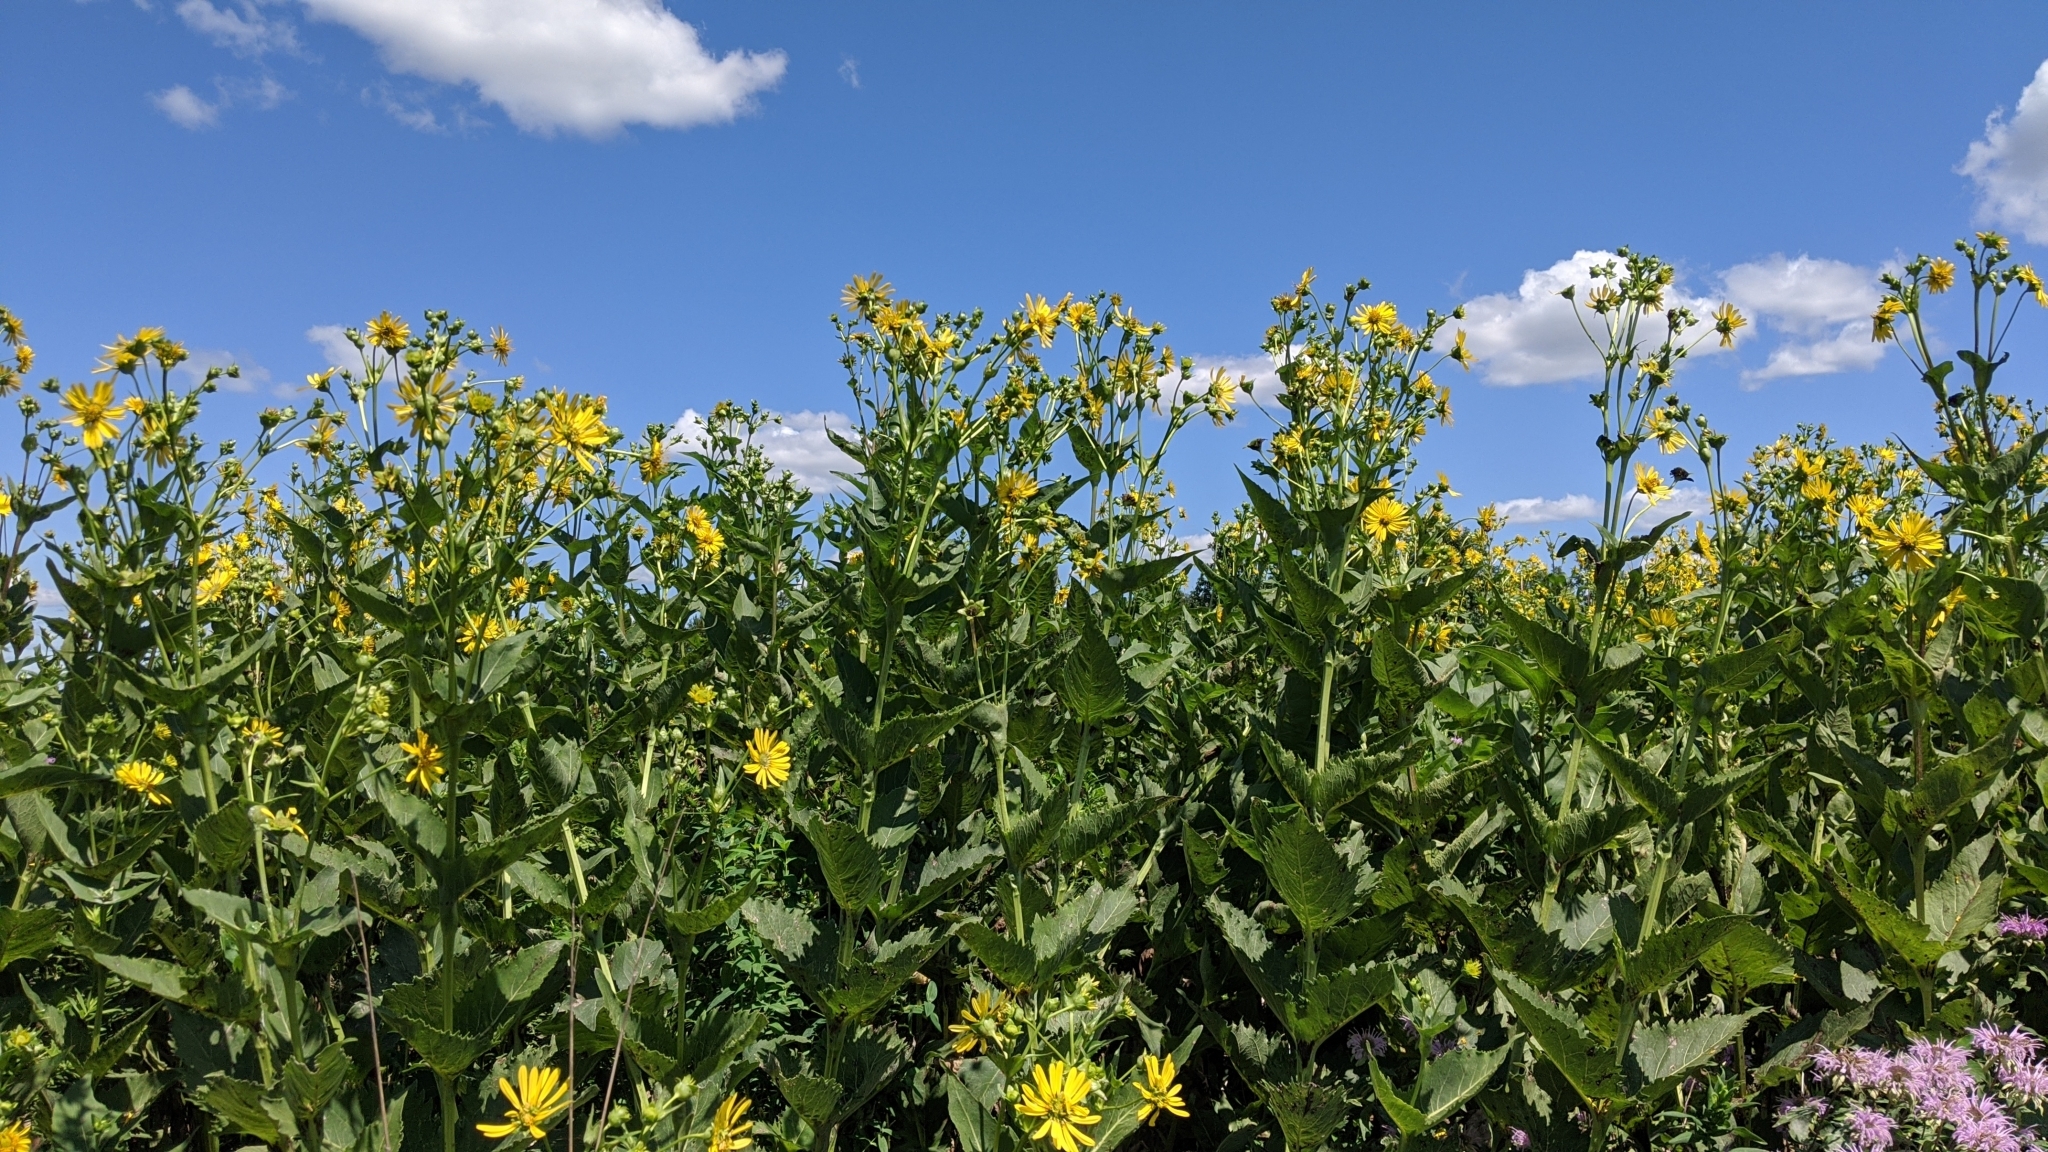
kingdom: Plantae
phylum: Tracheophyta
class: Magnoliopsida
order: Asterales
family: Asteraceae
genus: Silphium
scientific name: Silphium perfoliatum
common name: Cup-plant
